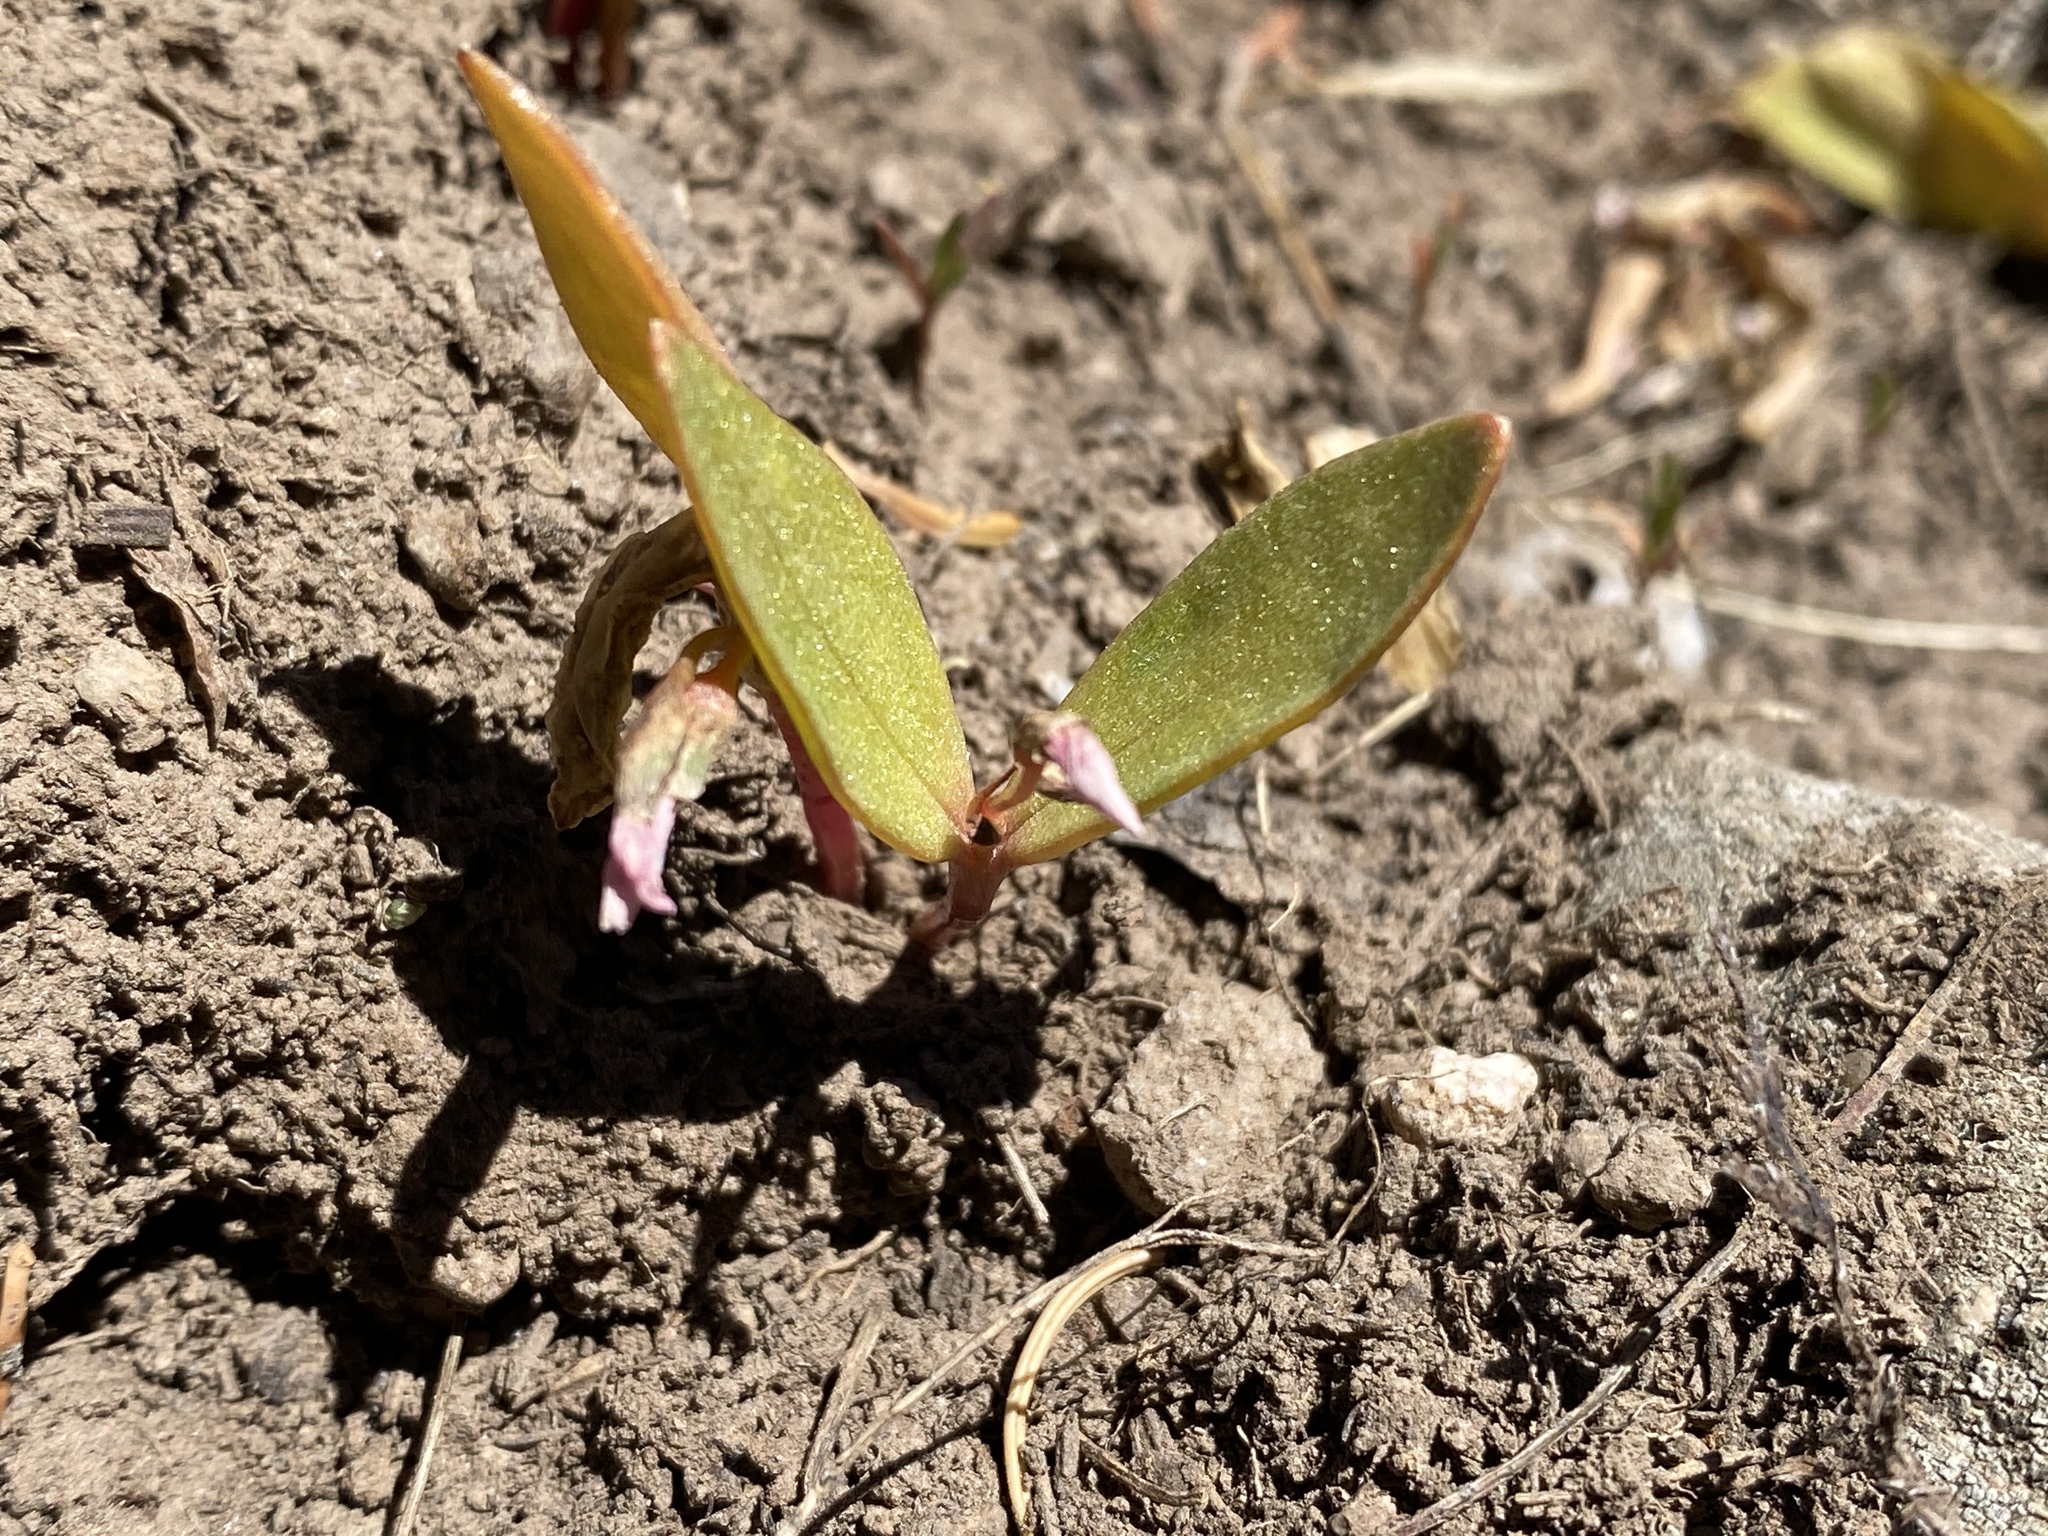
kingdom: Plantae
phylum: Tracheophyta
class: Magnoliopsida
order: Caryophyllales
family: Montiaceae
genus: Claytonia
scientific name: Claytonia lanceolata
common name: Western spring-beauty
